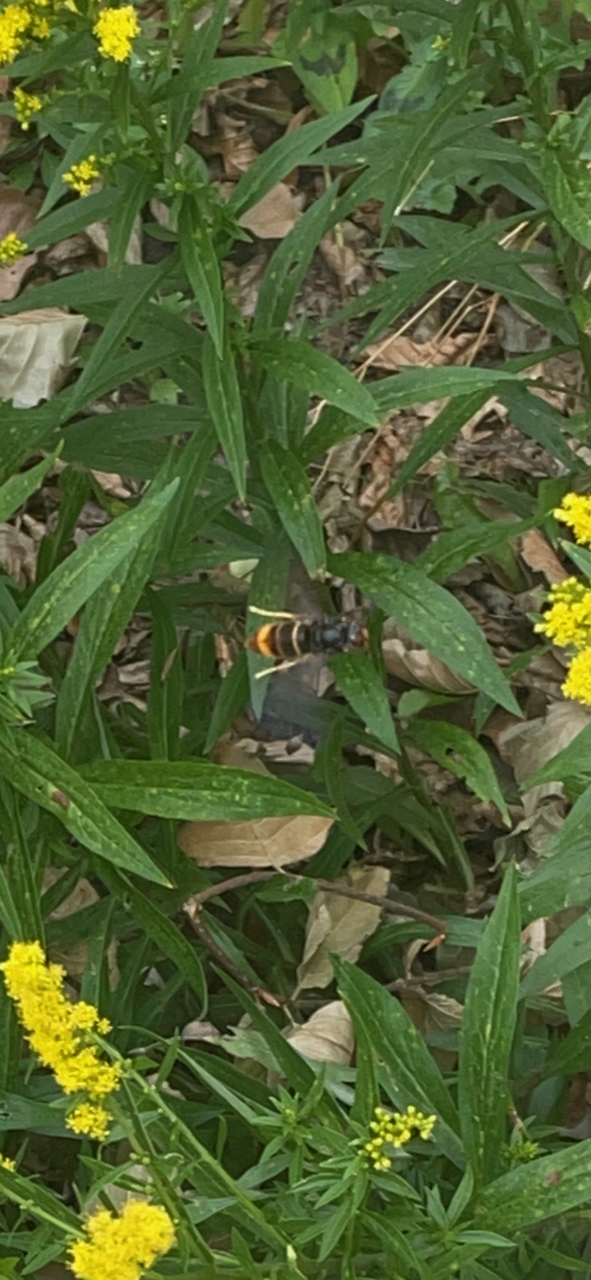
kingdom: Animalia
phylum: Arthropoda
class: Insecta
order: Hymenoptera
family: Vespidae
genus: Vespa
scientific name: Vespa velutina
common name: Asian hornet
